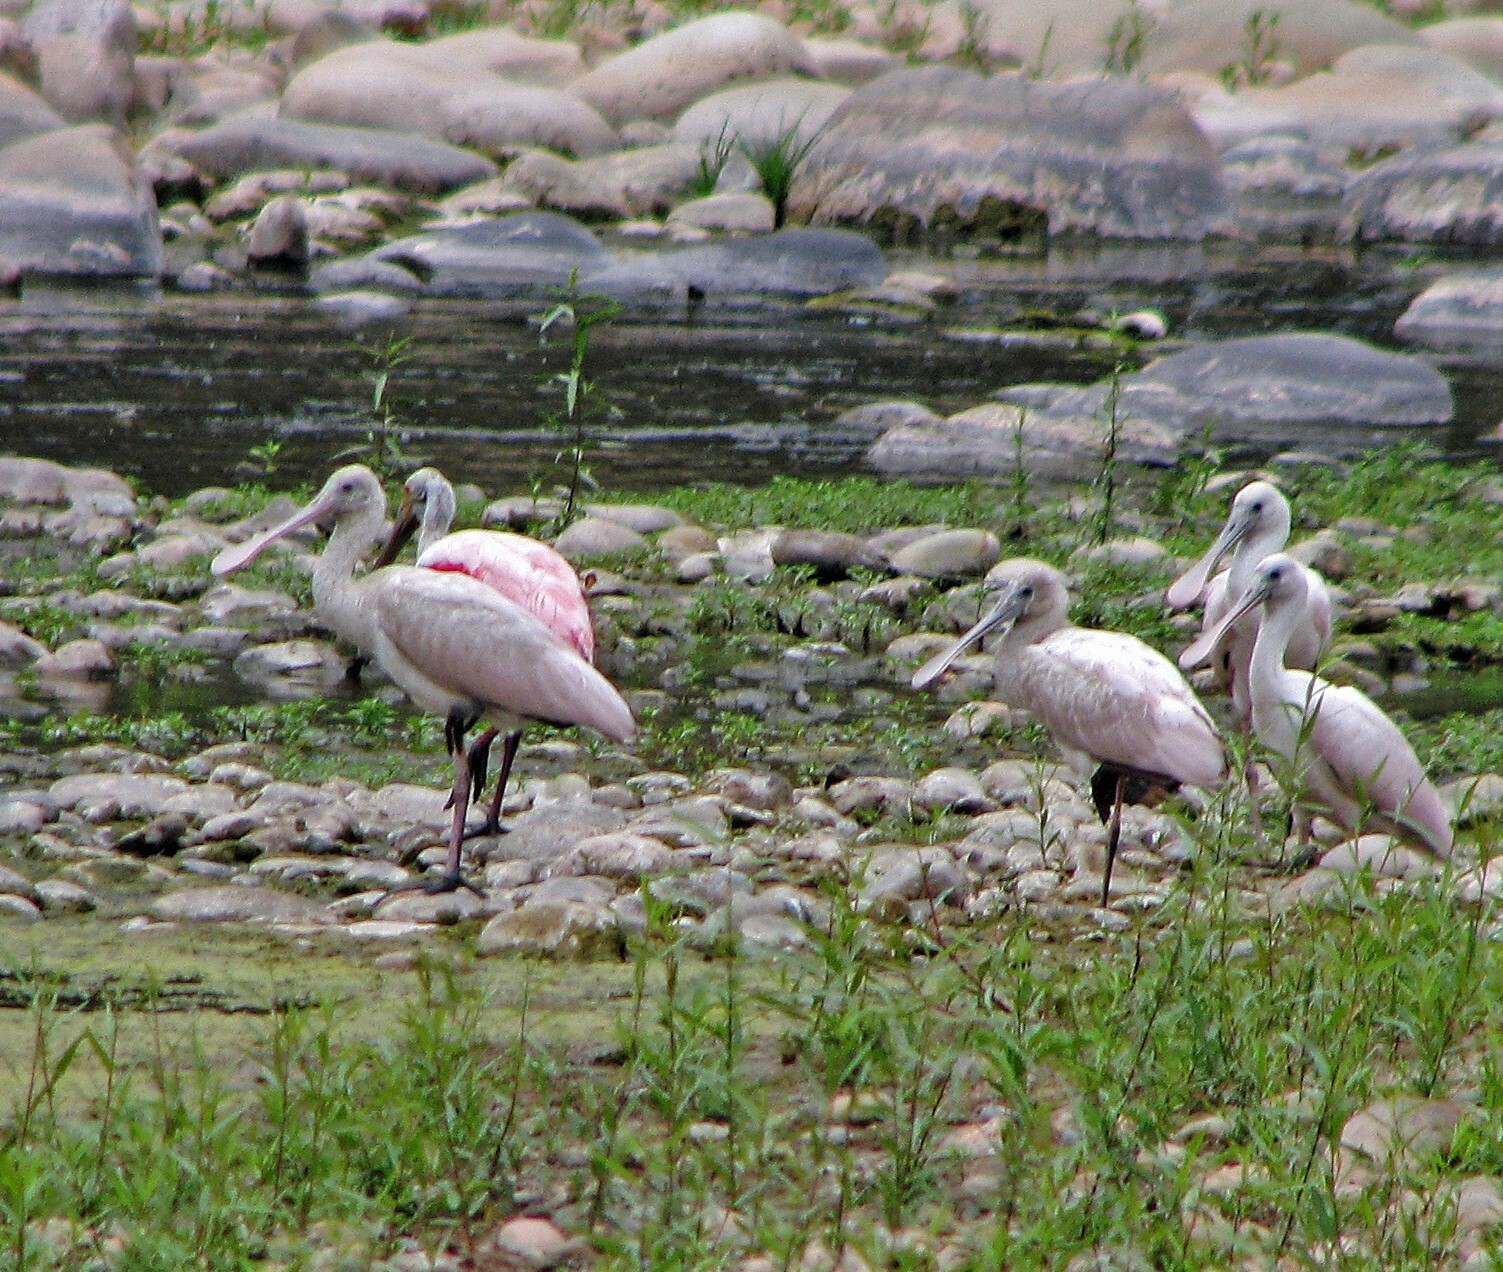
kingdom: Animalia
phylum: Chordata
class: Aves
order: Pelecaniformes
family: Threskiornithidae
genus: Platalea
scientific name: Platalea ajaja
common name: Roseate spoonbill
